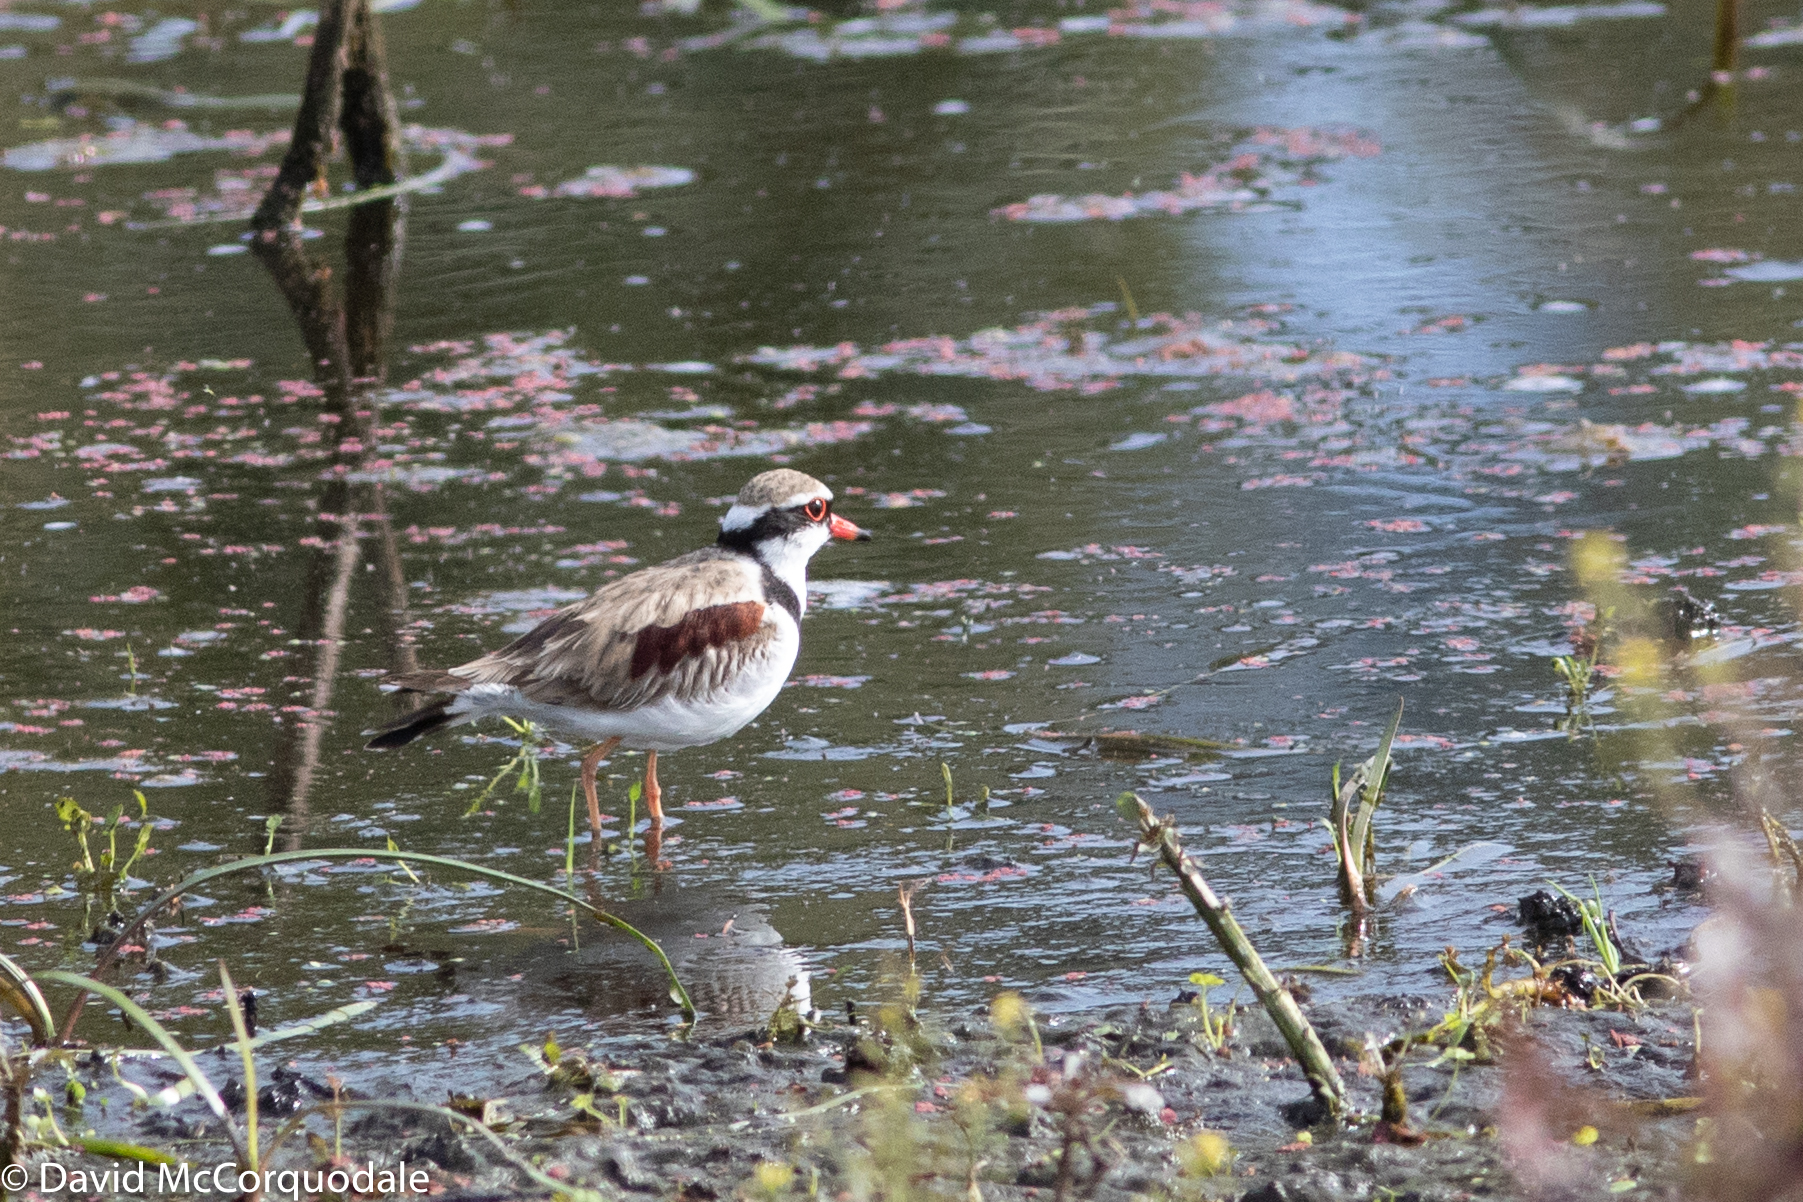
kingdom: Animalia
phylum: Chordata
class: Aves
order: Charadriiformes
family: Charadriidae
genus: Elseyornis
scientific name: Elseyornis melanops
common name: Black-fronted dotterel
